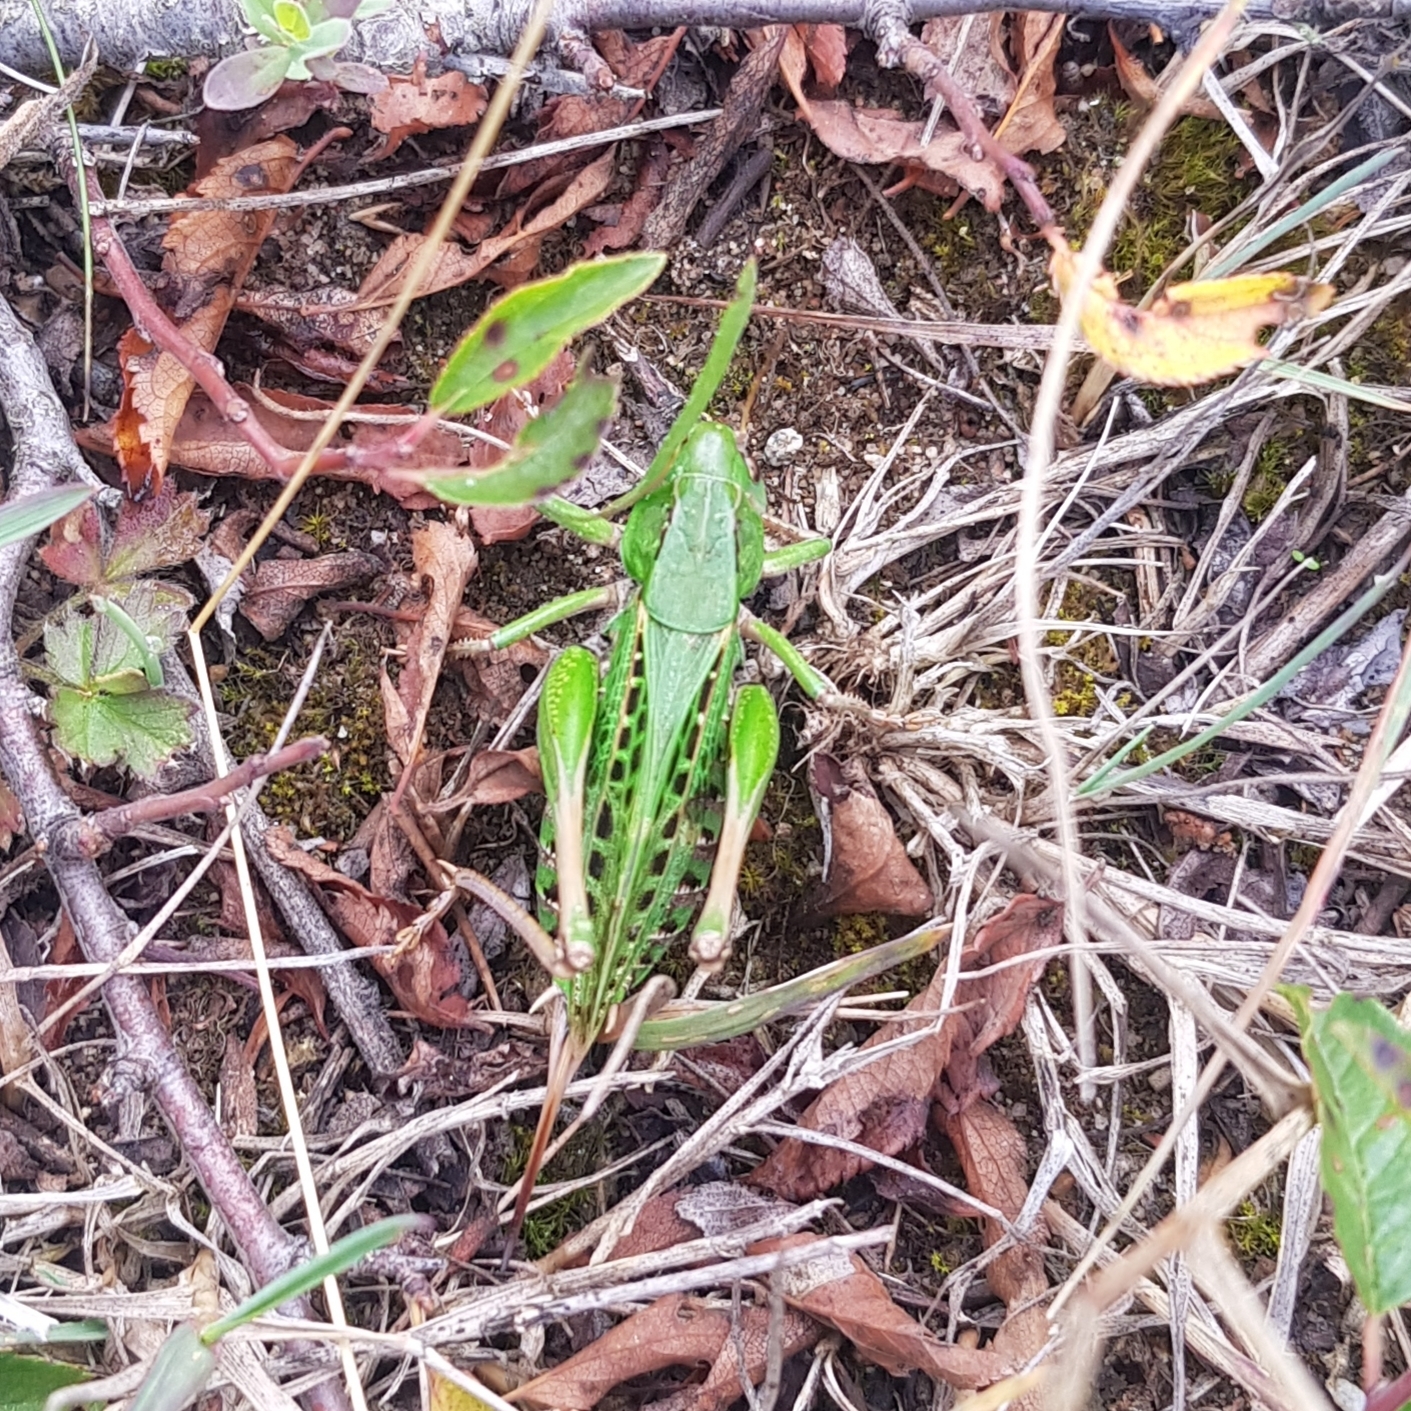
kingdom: Animalia
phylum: Arthropoda
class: Insecta
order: Orthoptera
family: Tettigoniidae
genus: Decticus
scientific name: Decticus verrucivorus
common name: Wart-biter
